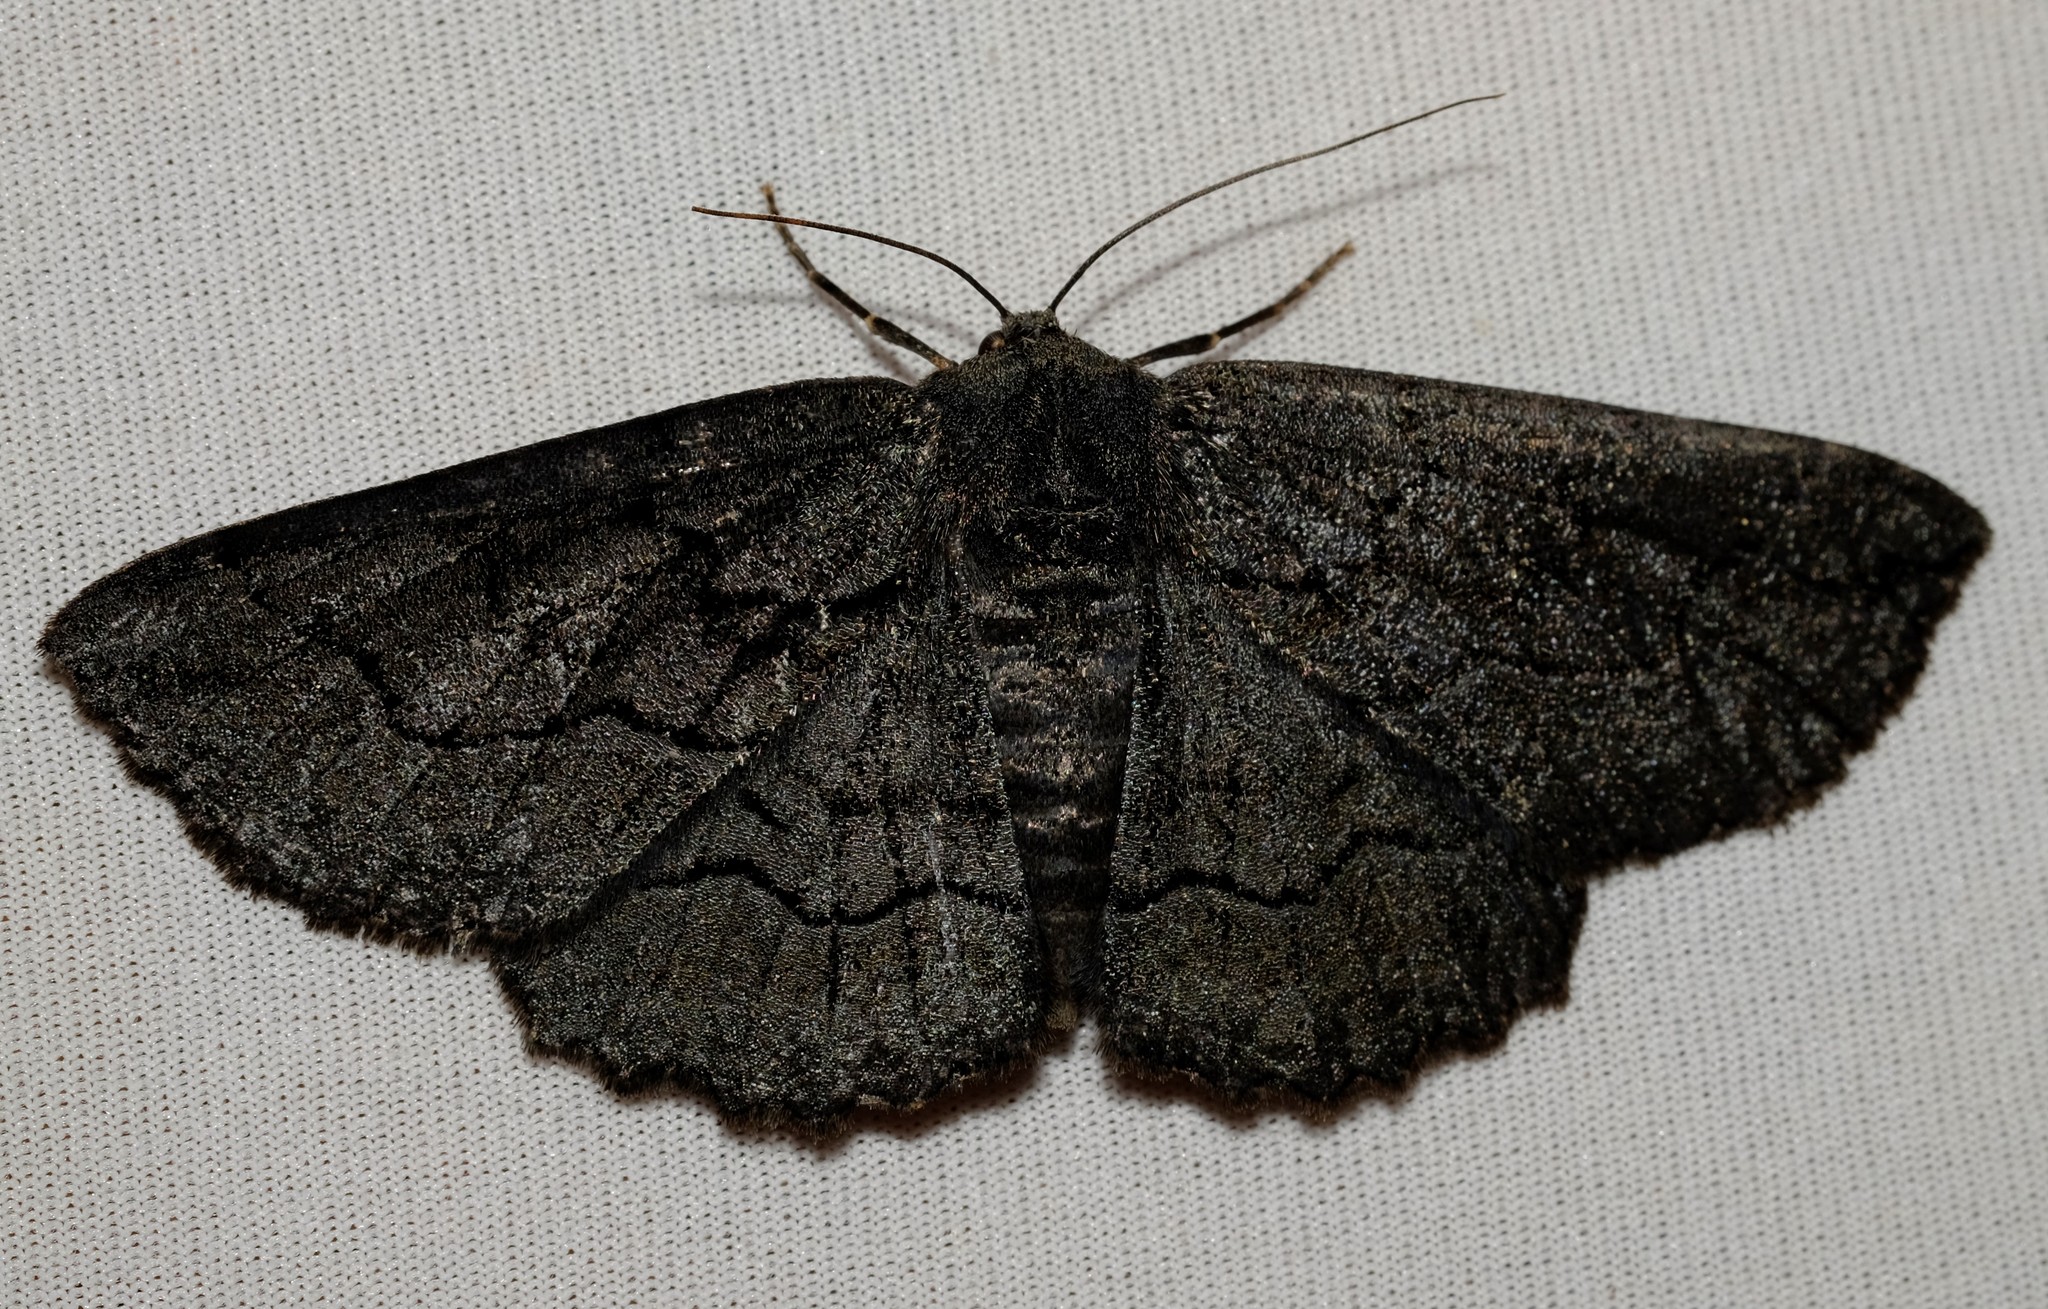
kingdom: Animalia
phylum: Arthropoda
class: Insecta
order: Lepidoptera
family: Geometridae
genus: Melanodes
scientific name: Melanodes anthracitaria
